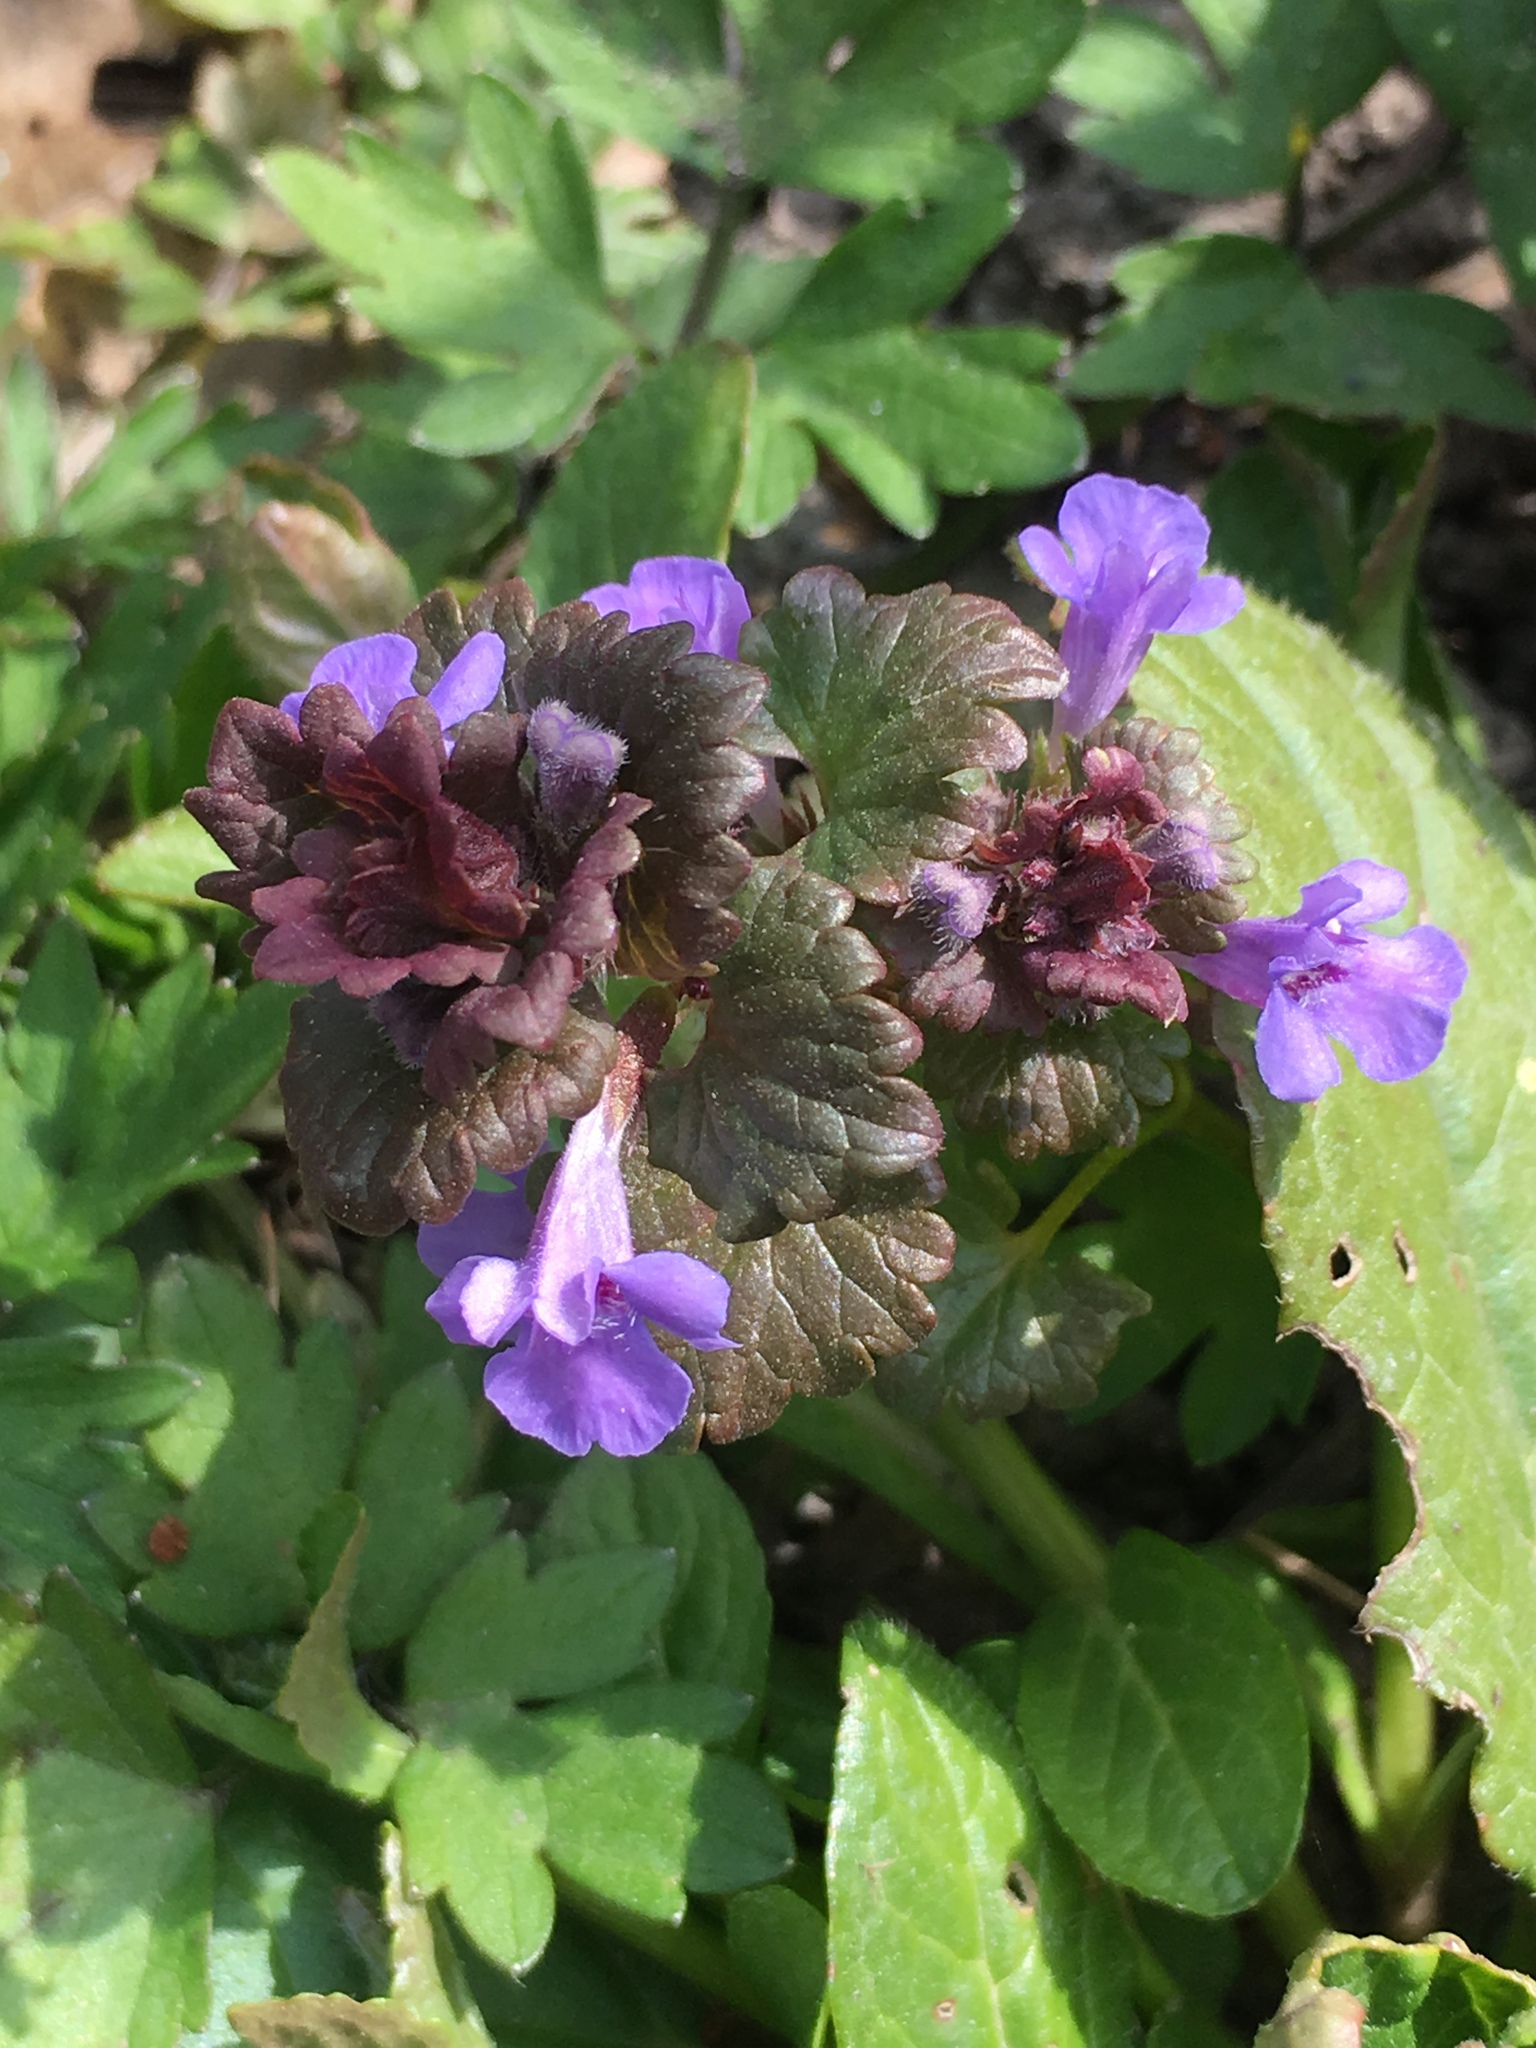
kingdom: Plantae
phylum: Tracheophyta
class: Magnoliopsida
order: Lamiales
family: Lamiaceae
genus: Glechoma
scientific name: Glechoma hederacea
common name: Ground ivy
